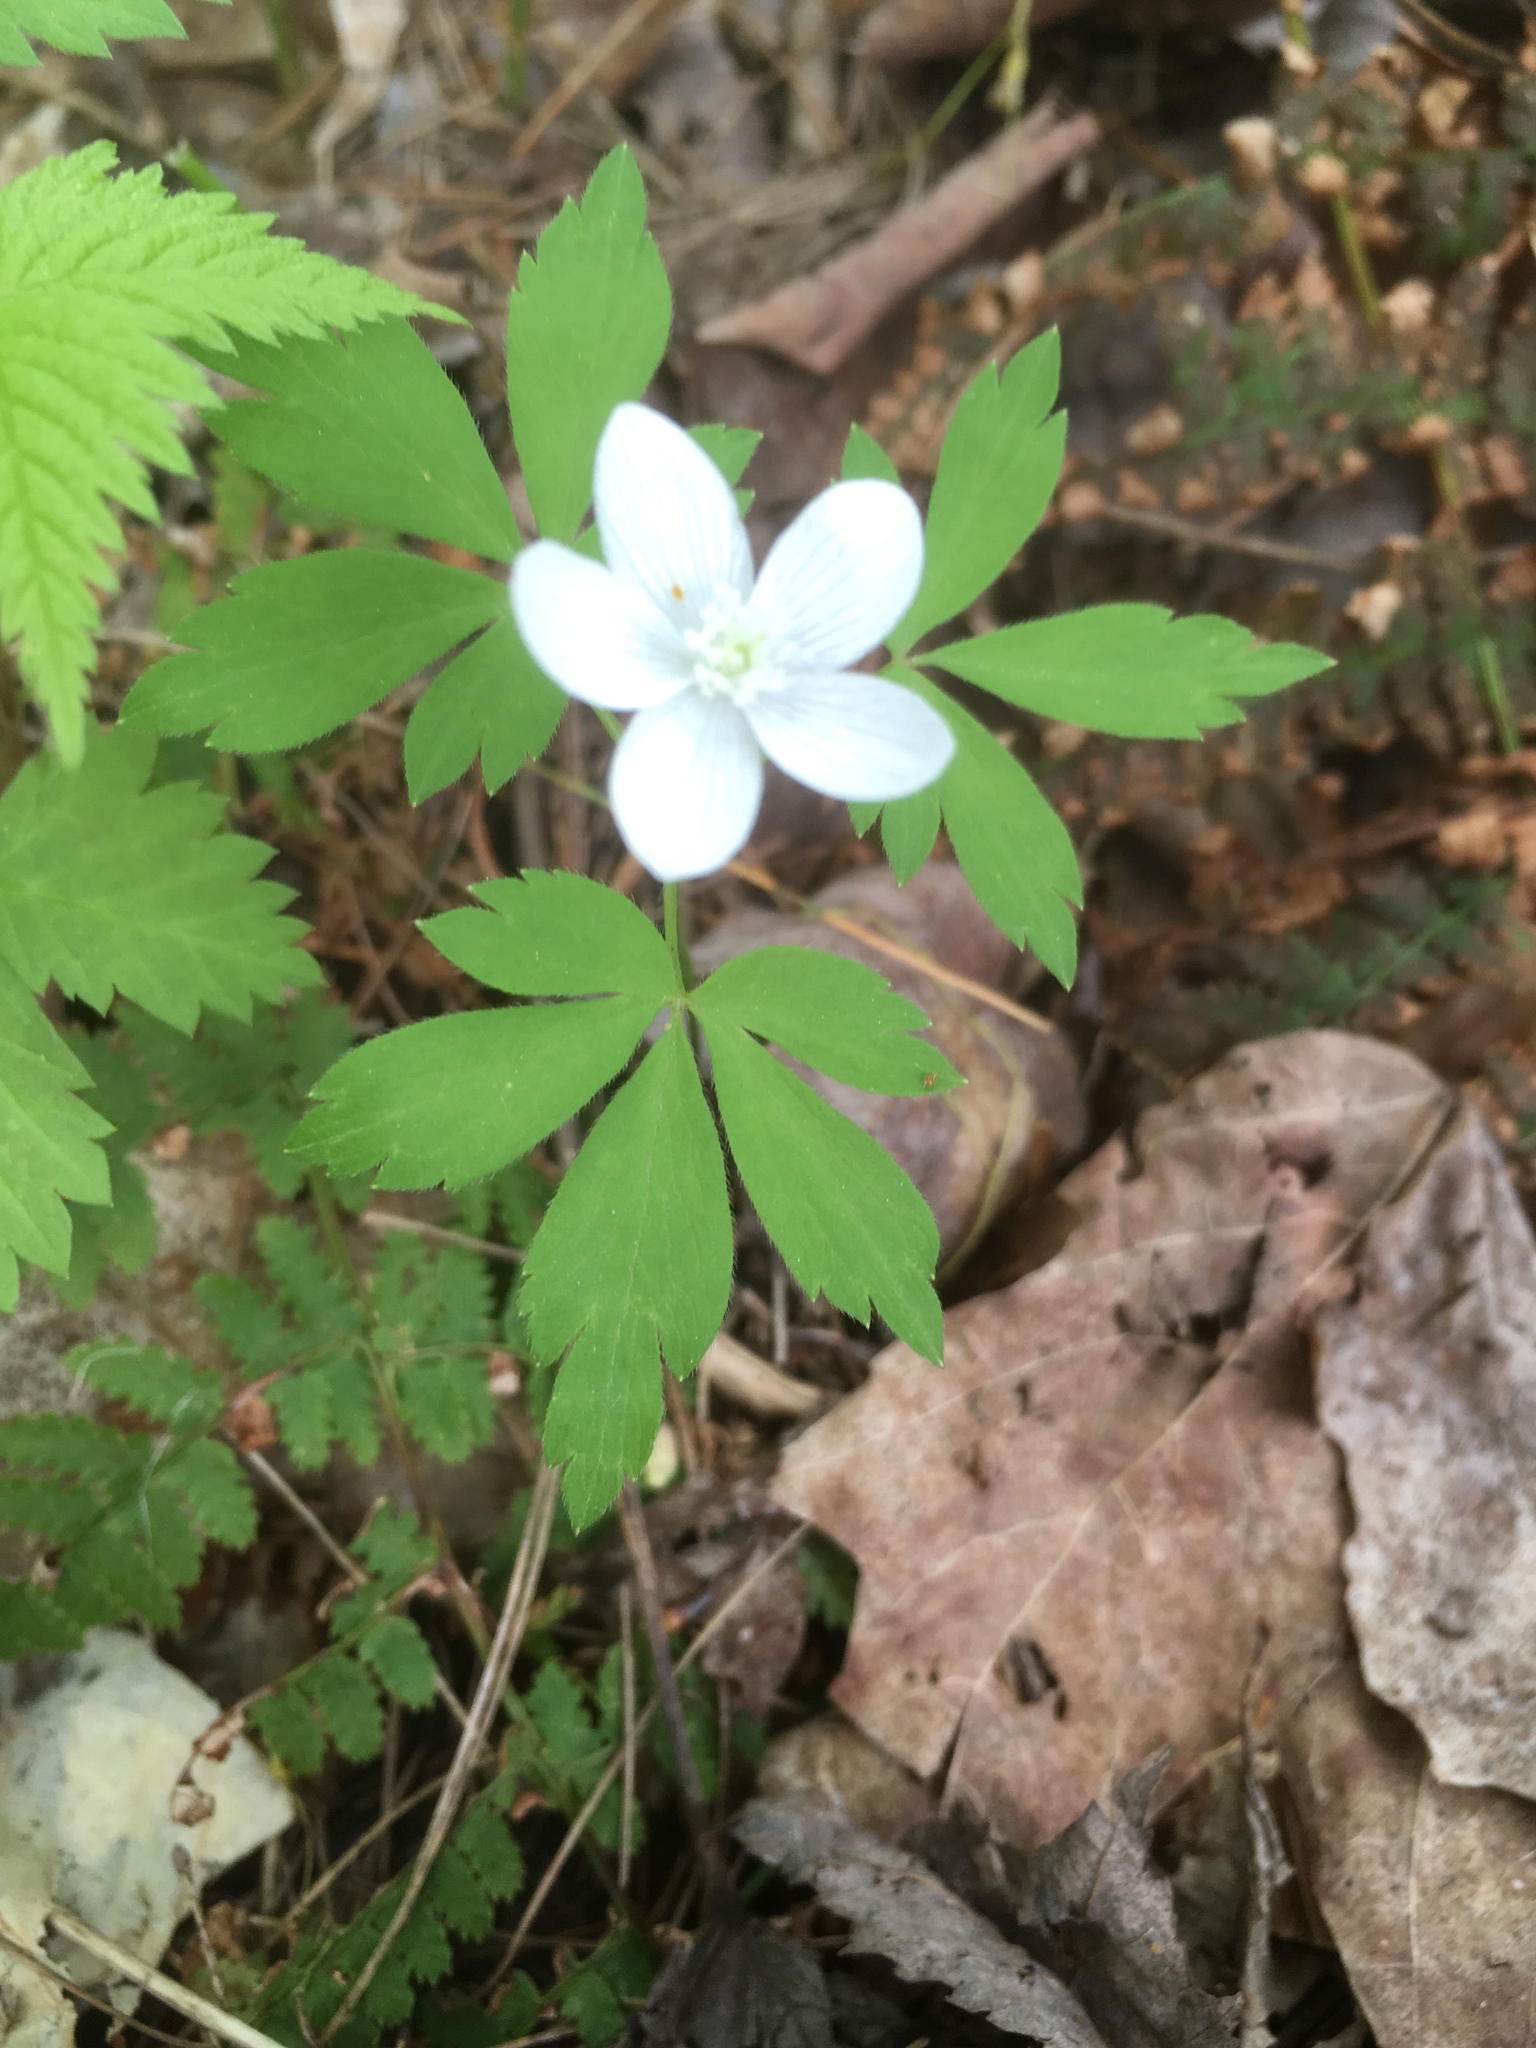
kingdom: Plantae
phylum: Tracheophyta
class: Magnoliopsida
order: Ranunculales
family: Ranunculaceae
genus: Anemone
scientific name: Anemone quinquefolia
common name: Wood anemone
